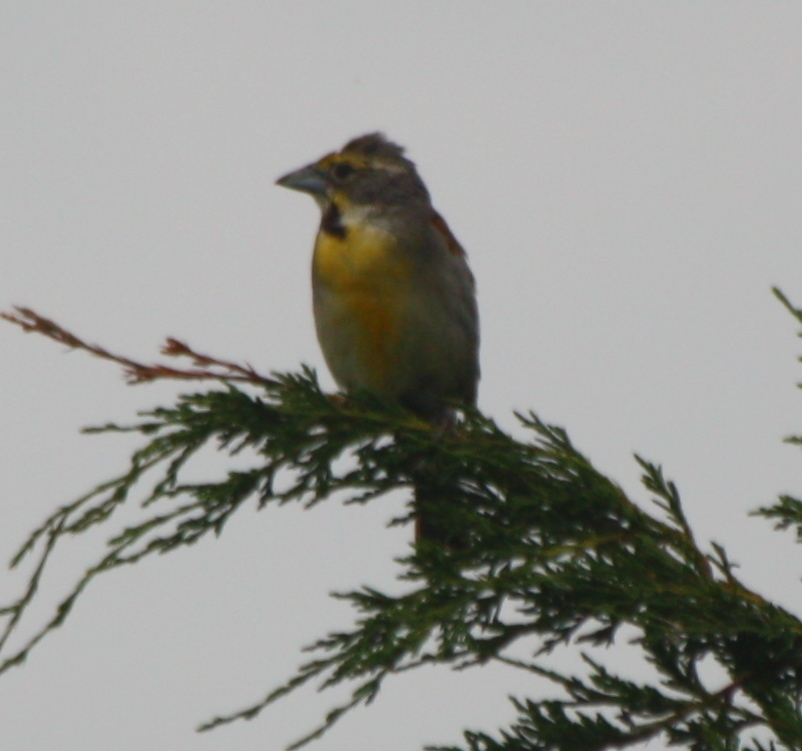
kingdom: Animalia
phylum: Chordata
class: Aves
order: Passeriformes
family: Cardinalidae
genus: Spiza
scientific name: Spiza americana
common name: Dickcissel
